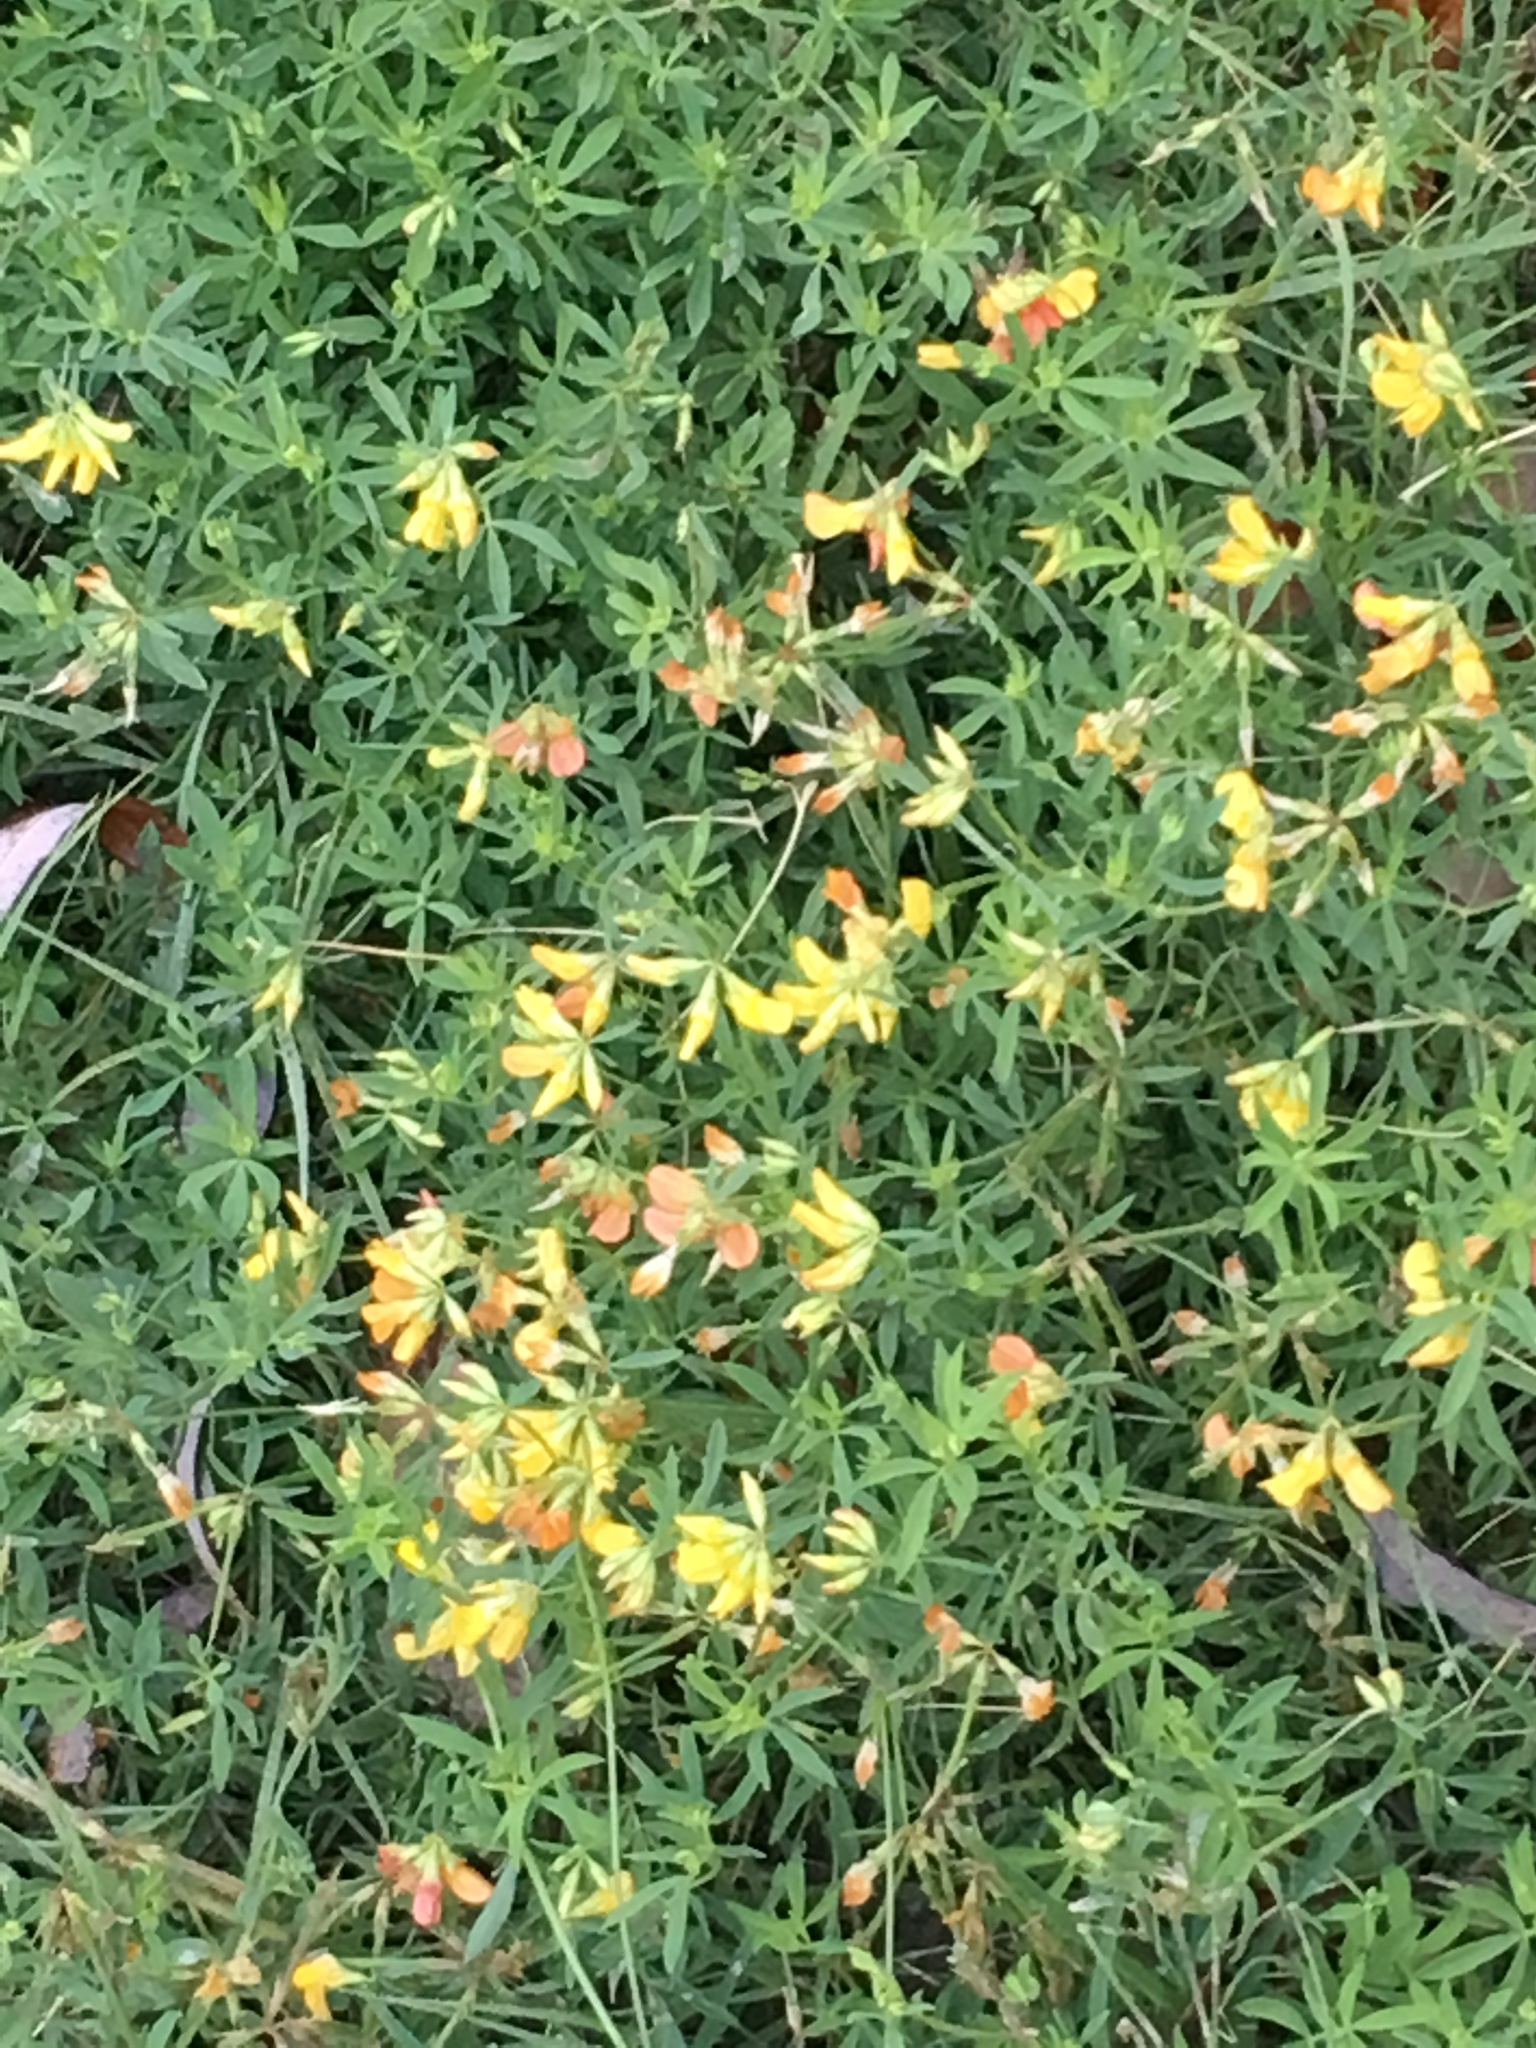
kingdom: Plantae
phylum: Tracheophyta
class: Magnoliopsida
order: Fabales
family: Fabaceae
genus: Lotus
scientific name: Lotus corniculatus
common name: Common bird's-foot-trefoil
